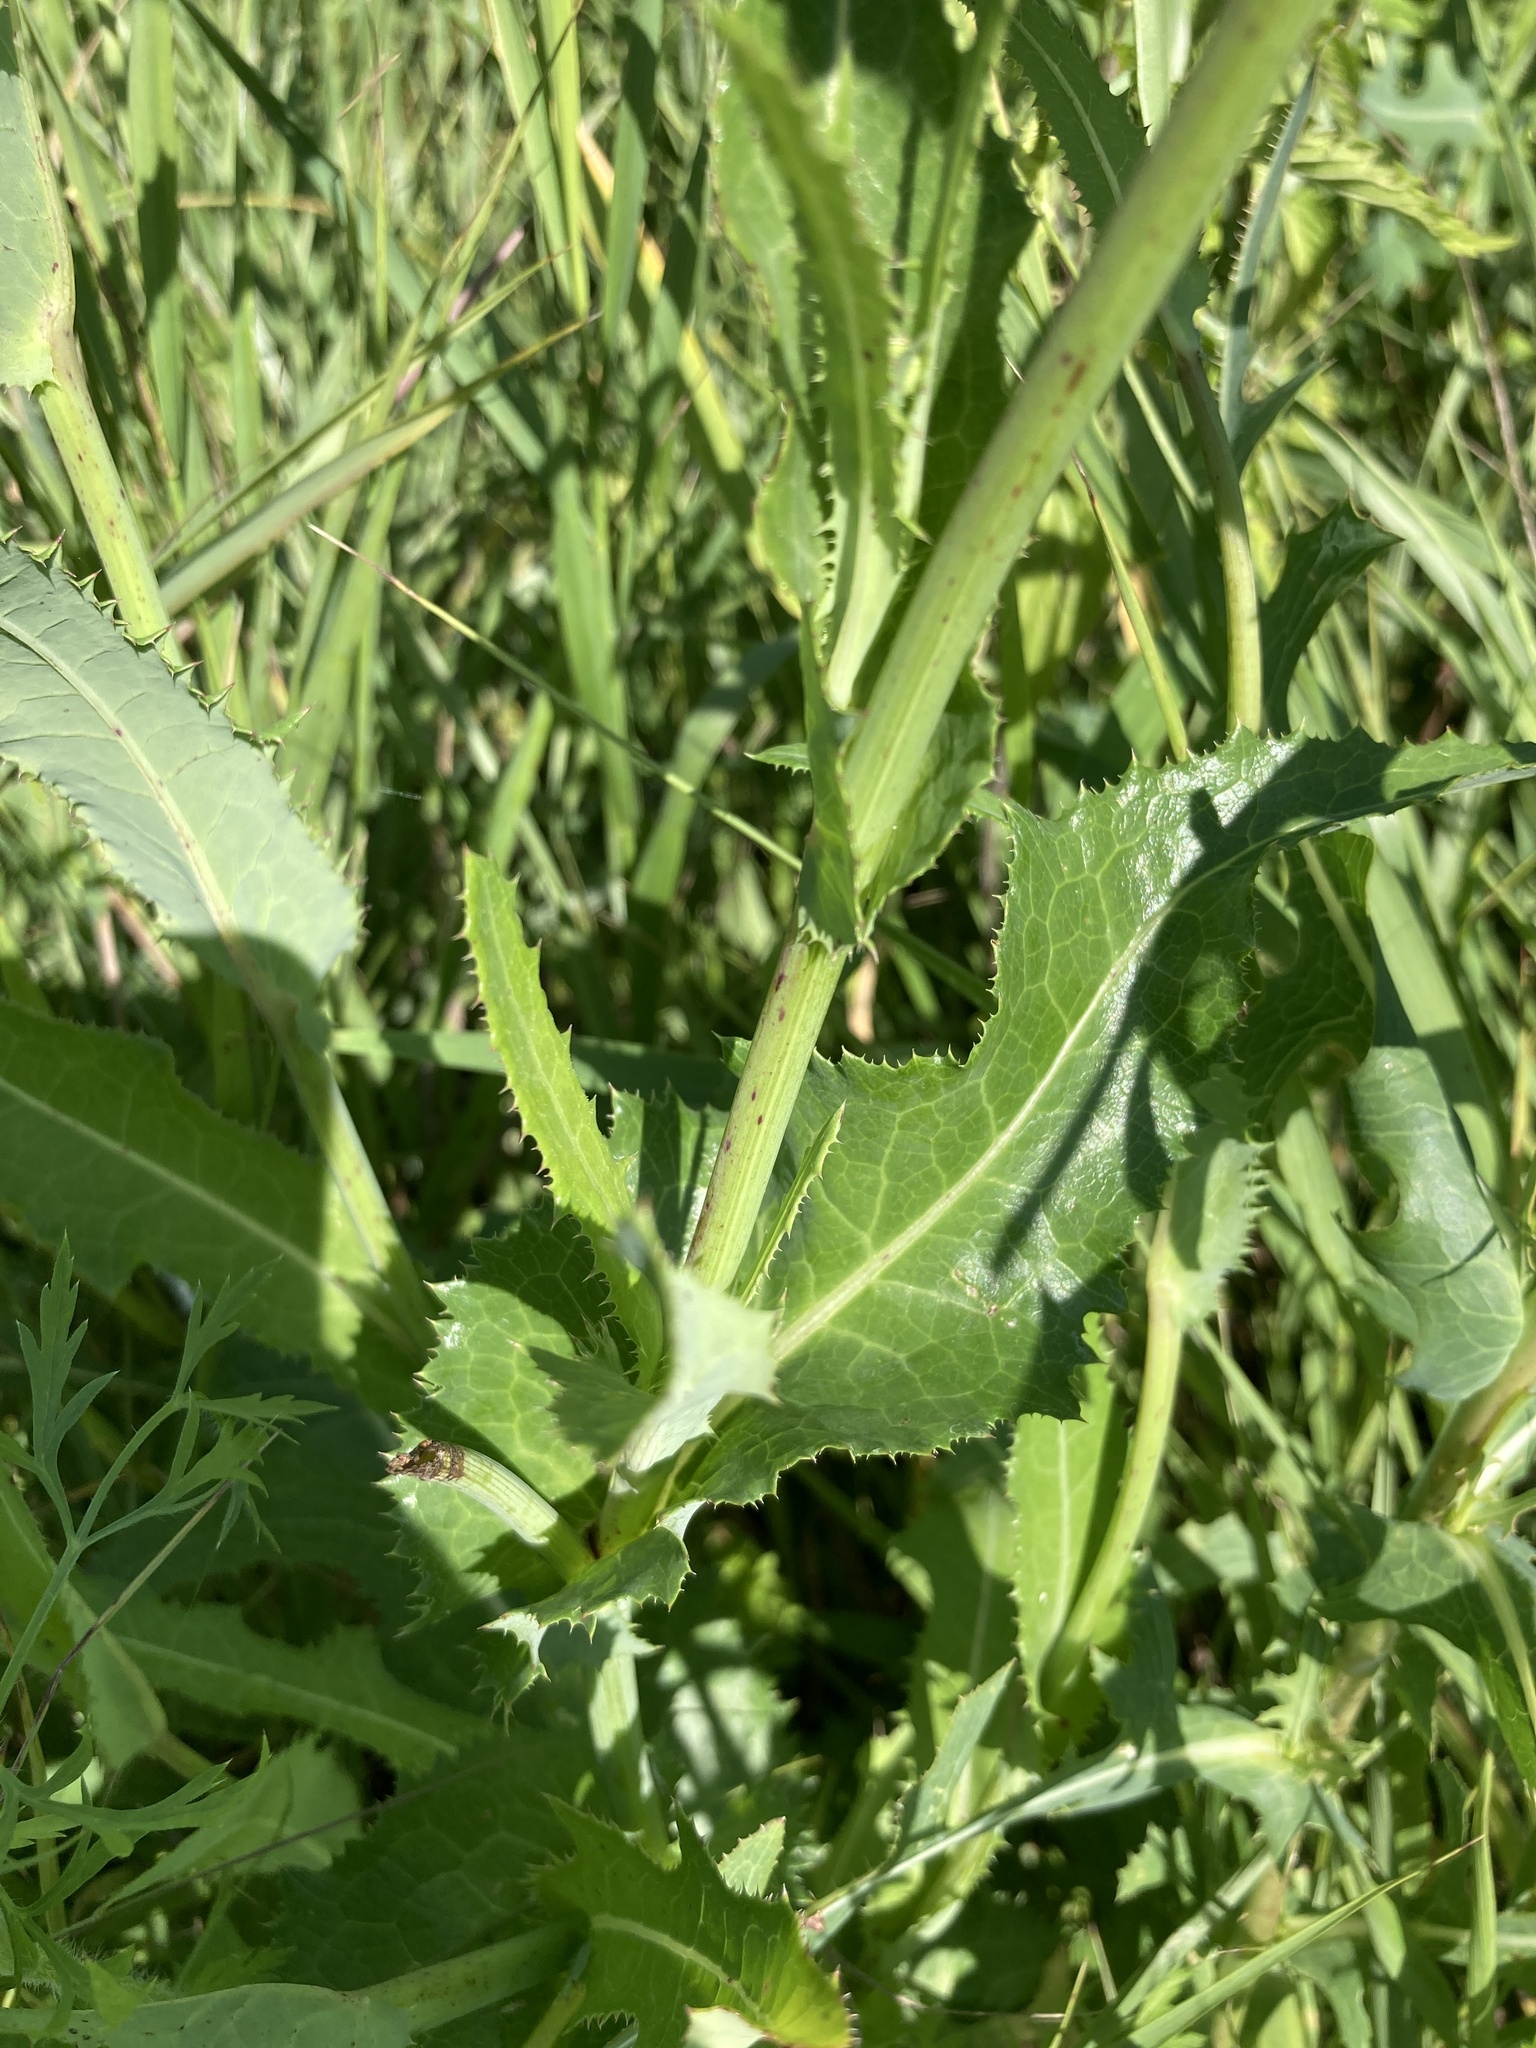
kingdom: Plantae
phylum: Tracheophyta
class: Magnoliopsida
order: Asterales
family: Asteraceae
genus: Sonchus
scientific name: Sonchus arvensis
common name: Perennial sow-thistle
